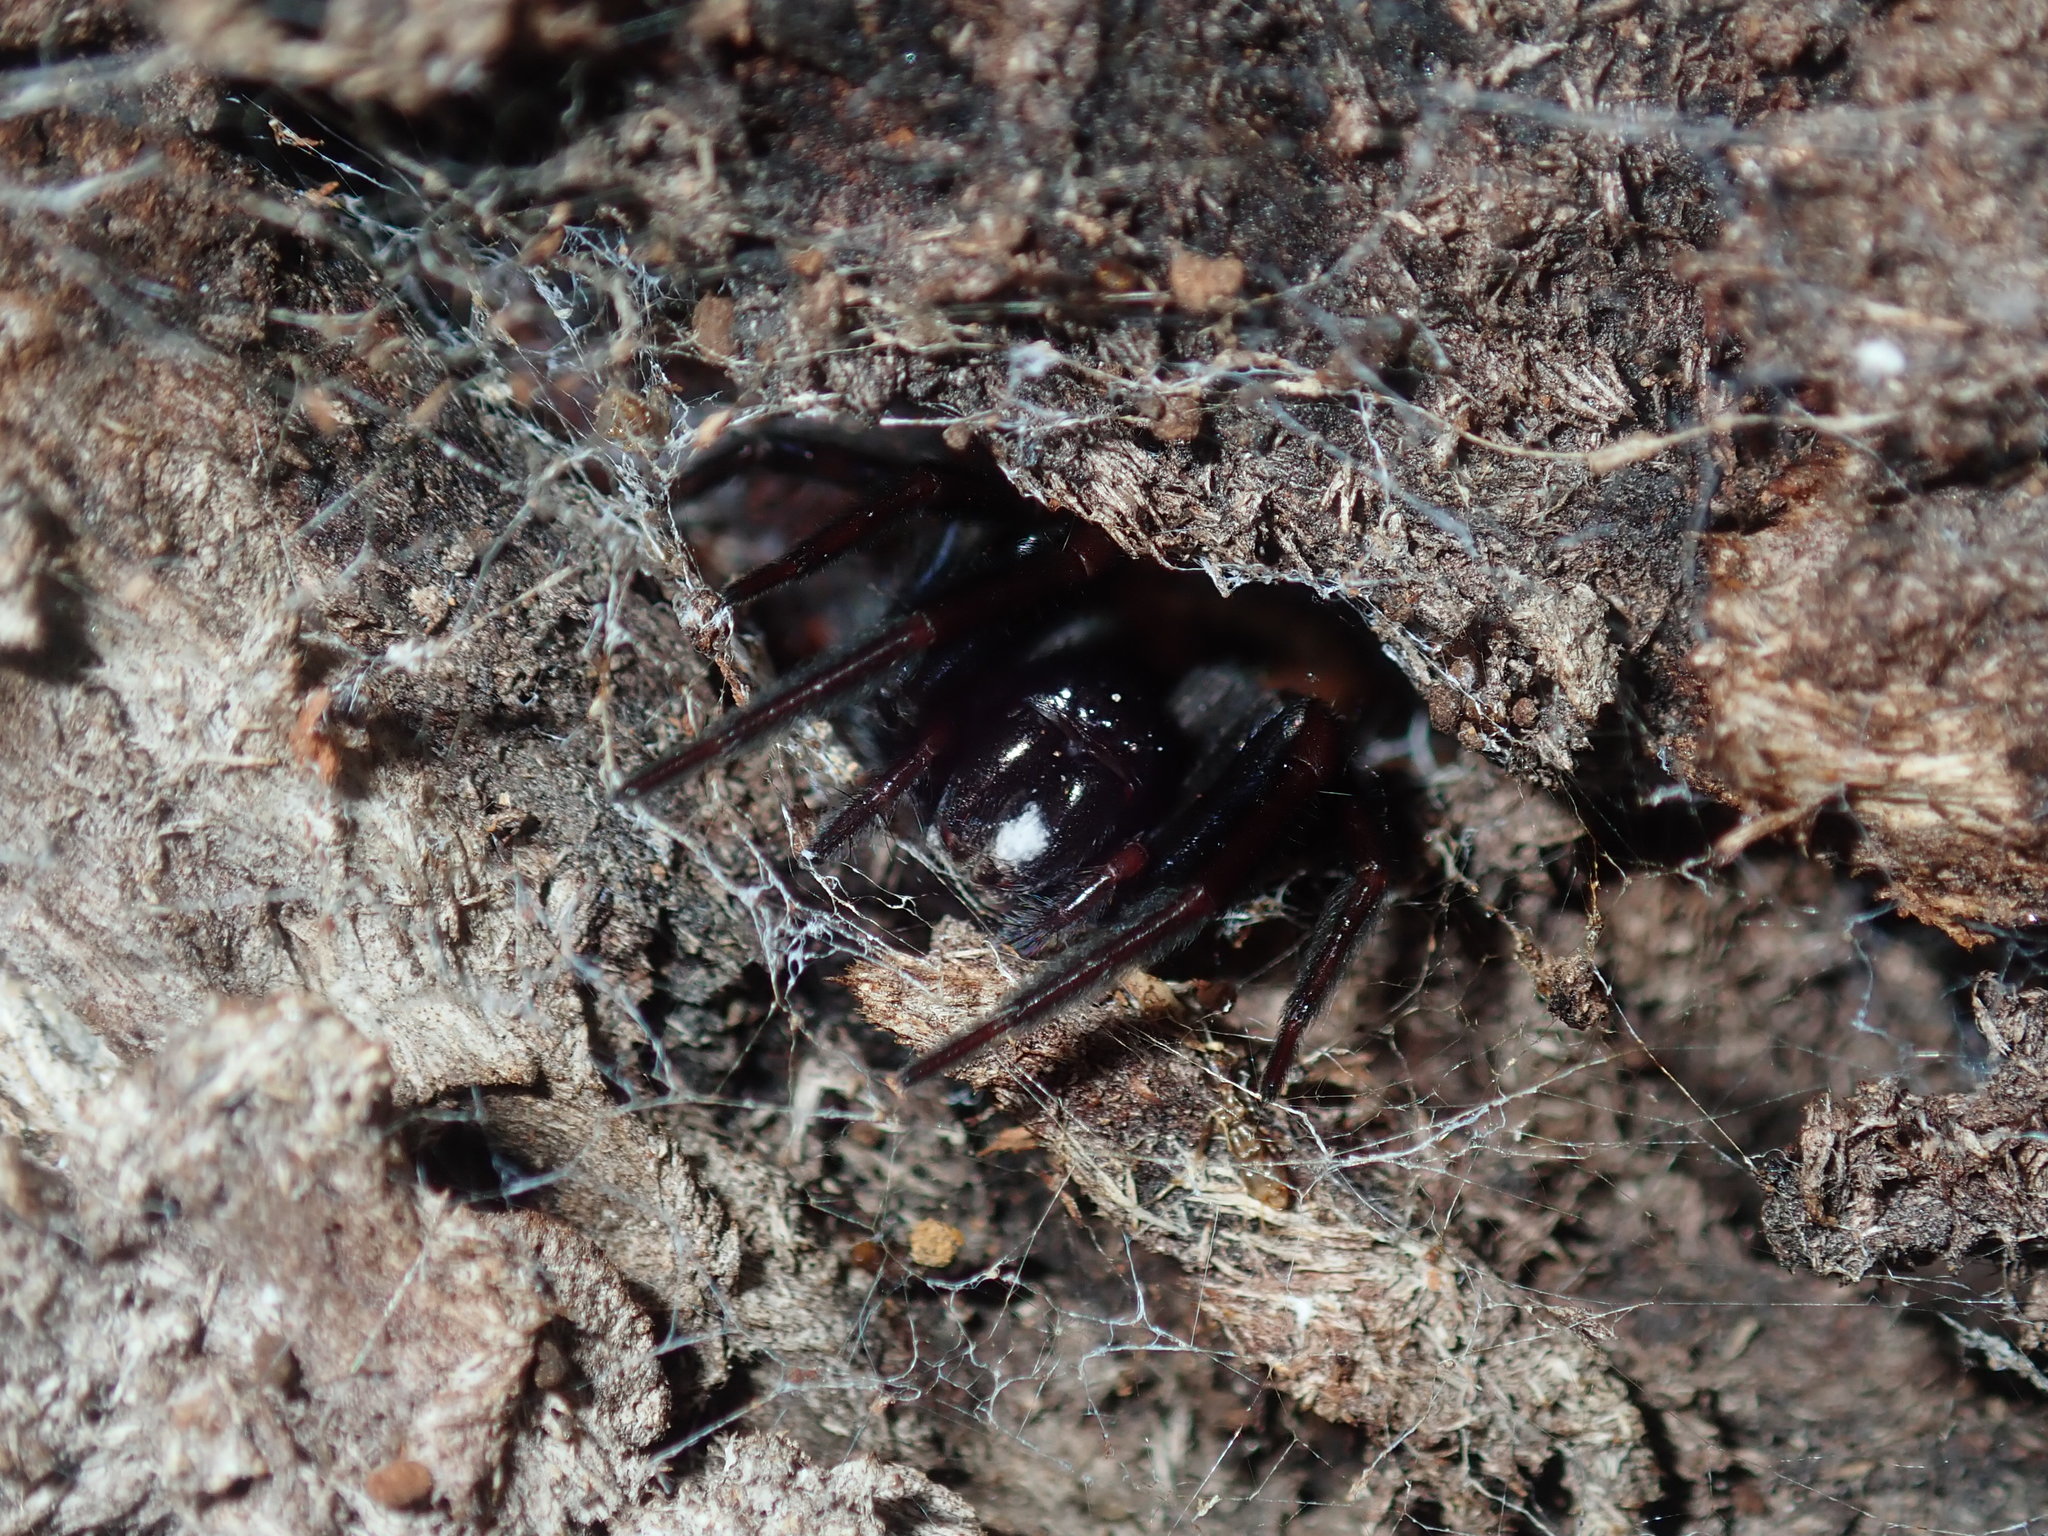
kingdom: Animalia
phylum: Arthropoda
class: Arachnida
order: Araneae
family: Desidae
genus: Badumna
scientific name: Badumna insignis
